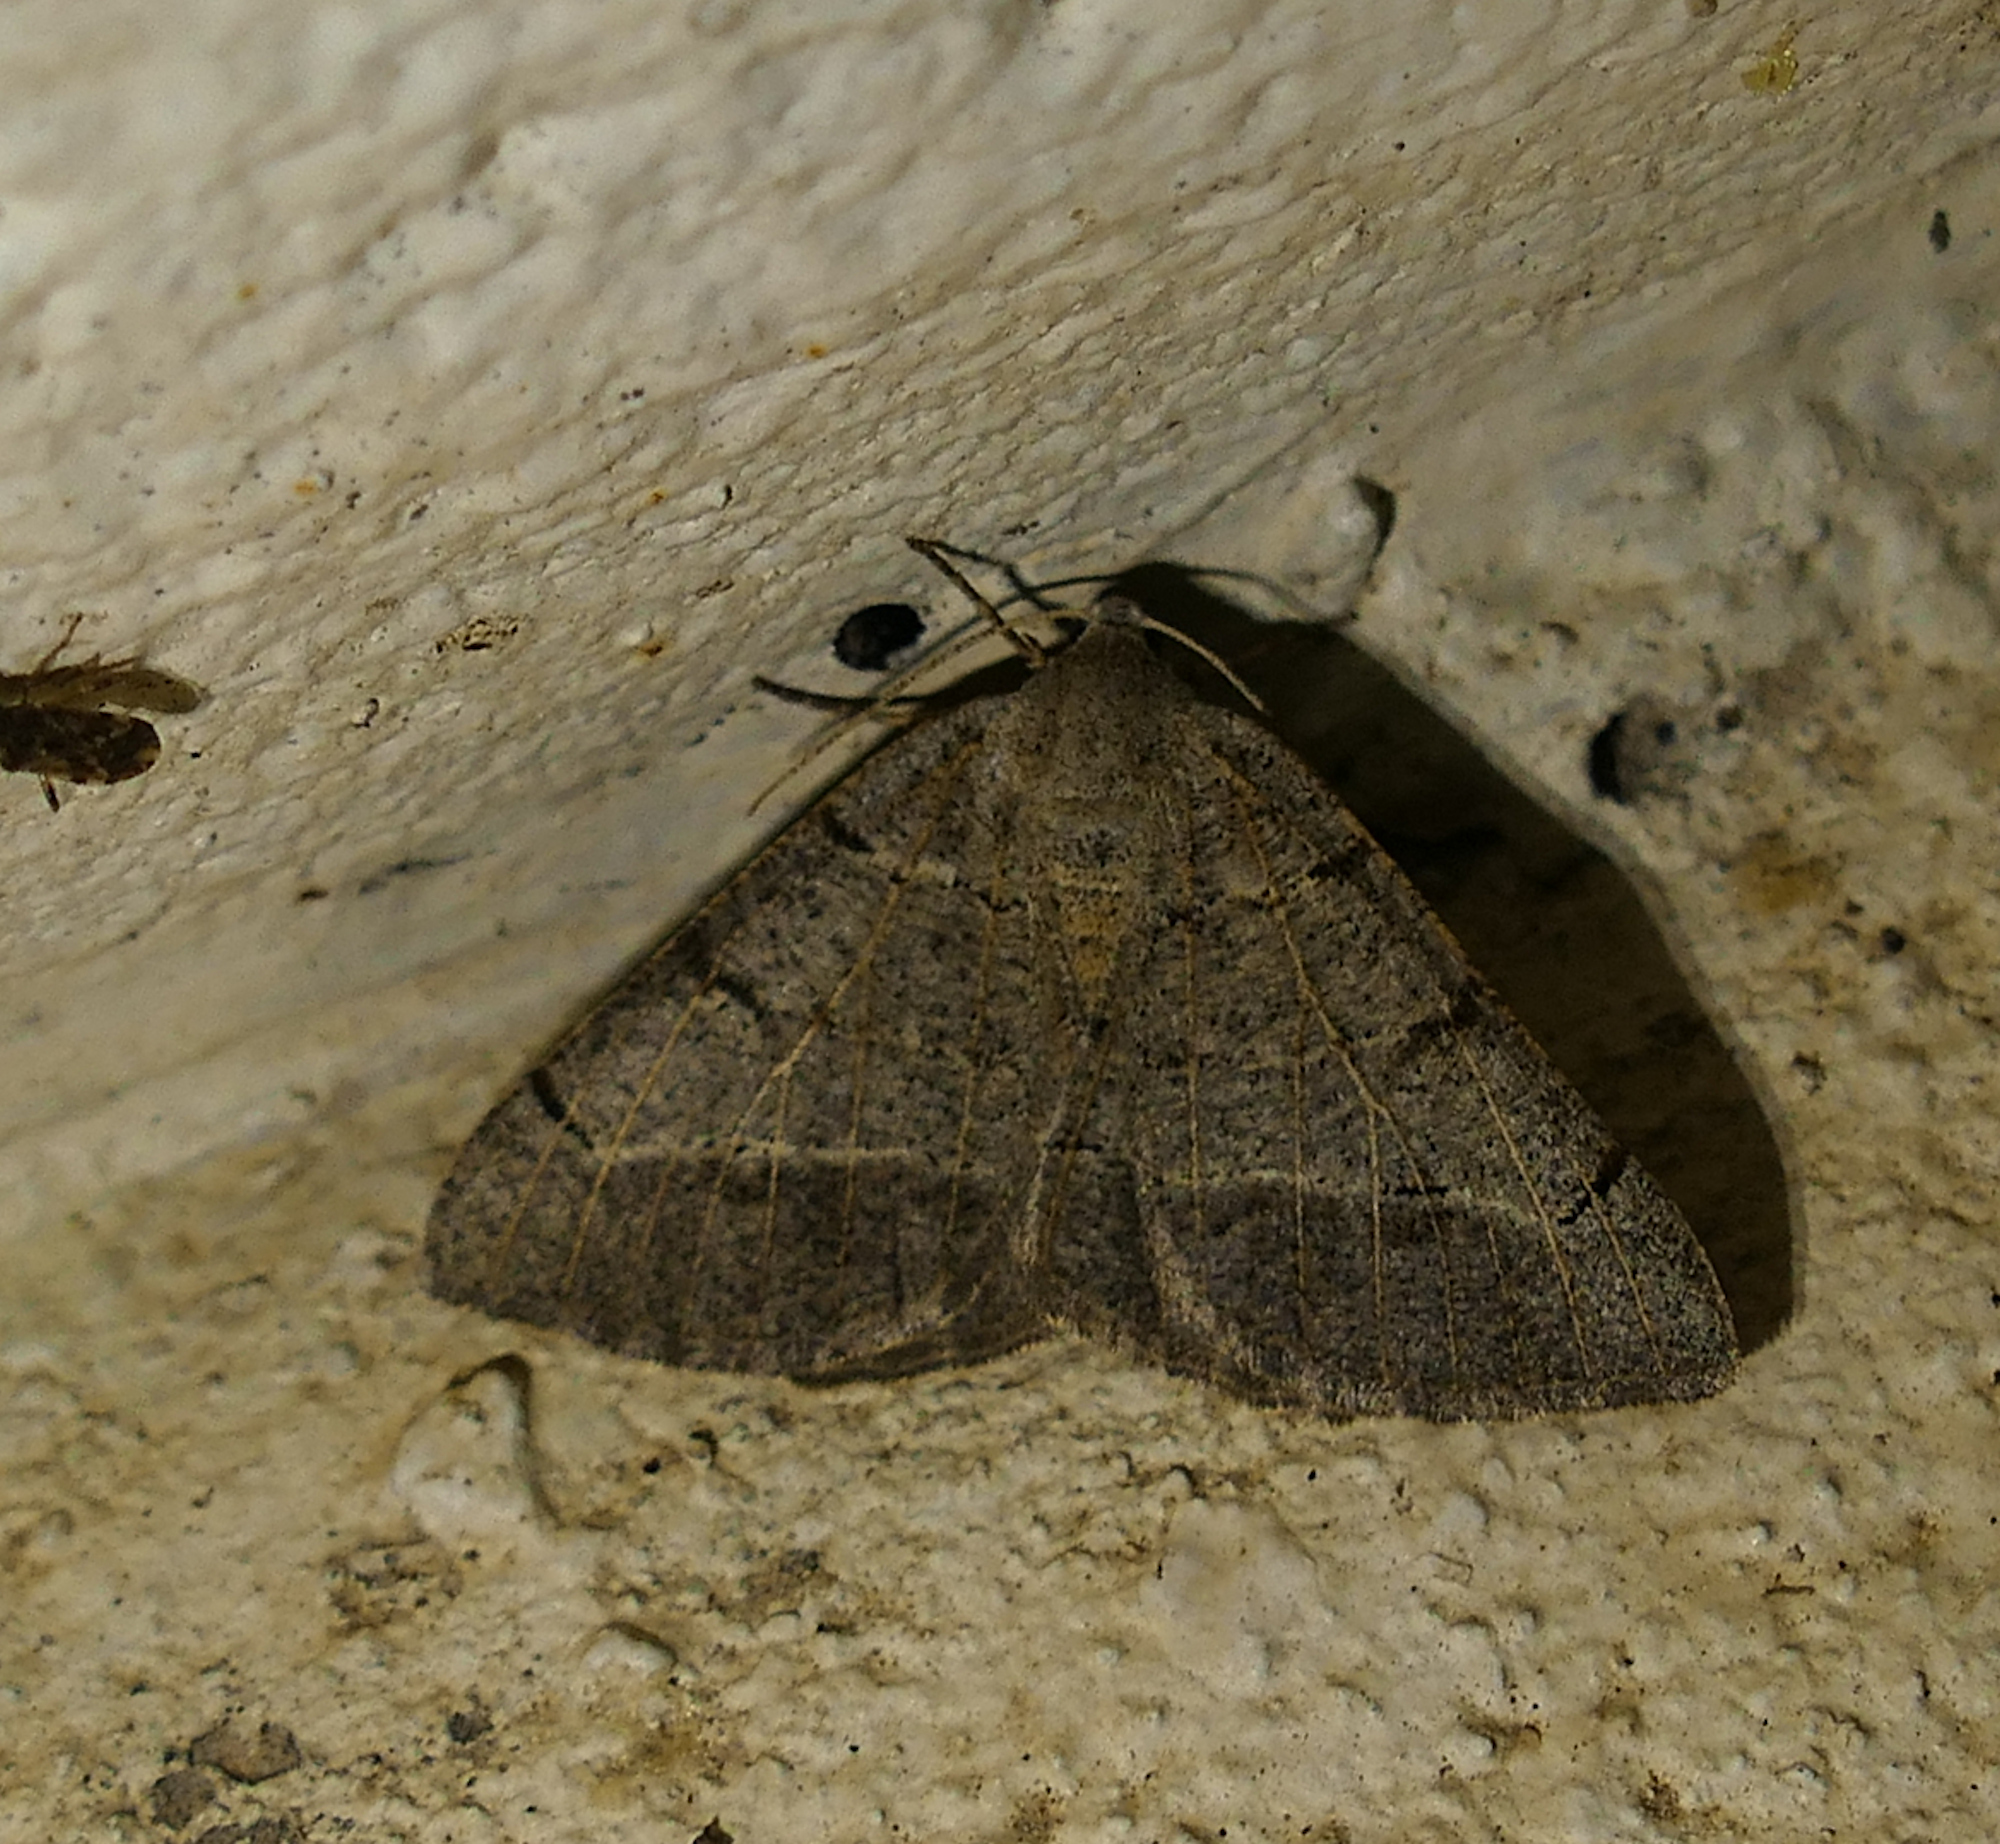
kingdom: Animalia
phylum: Arthropoda
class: Insecta
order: Lepidoptera
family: Geometridae
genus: Isturgia
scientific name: Isturgia dislocaria
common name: Pale-viened enconista
